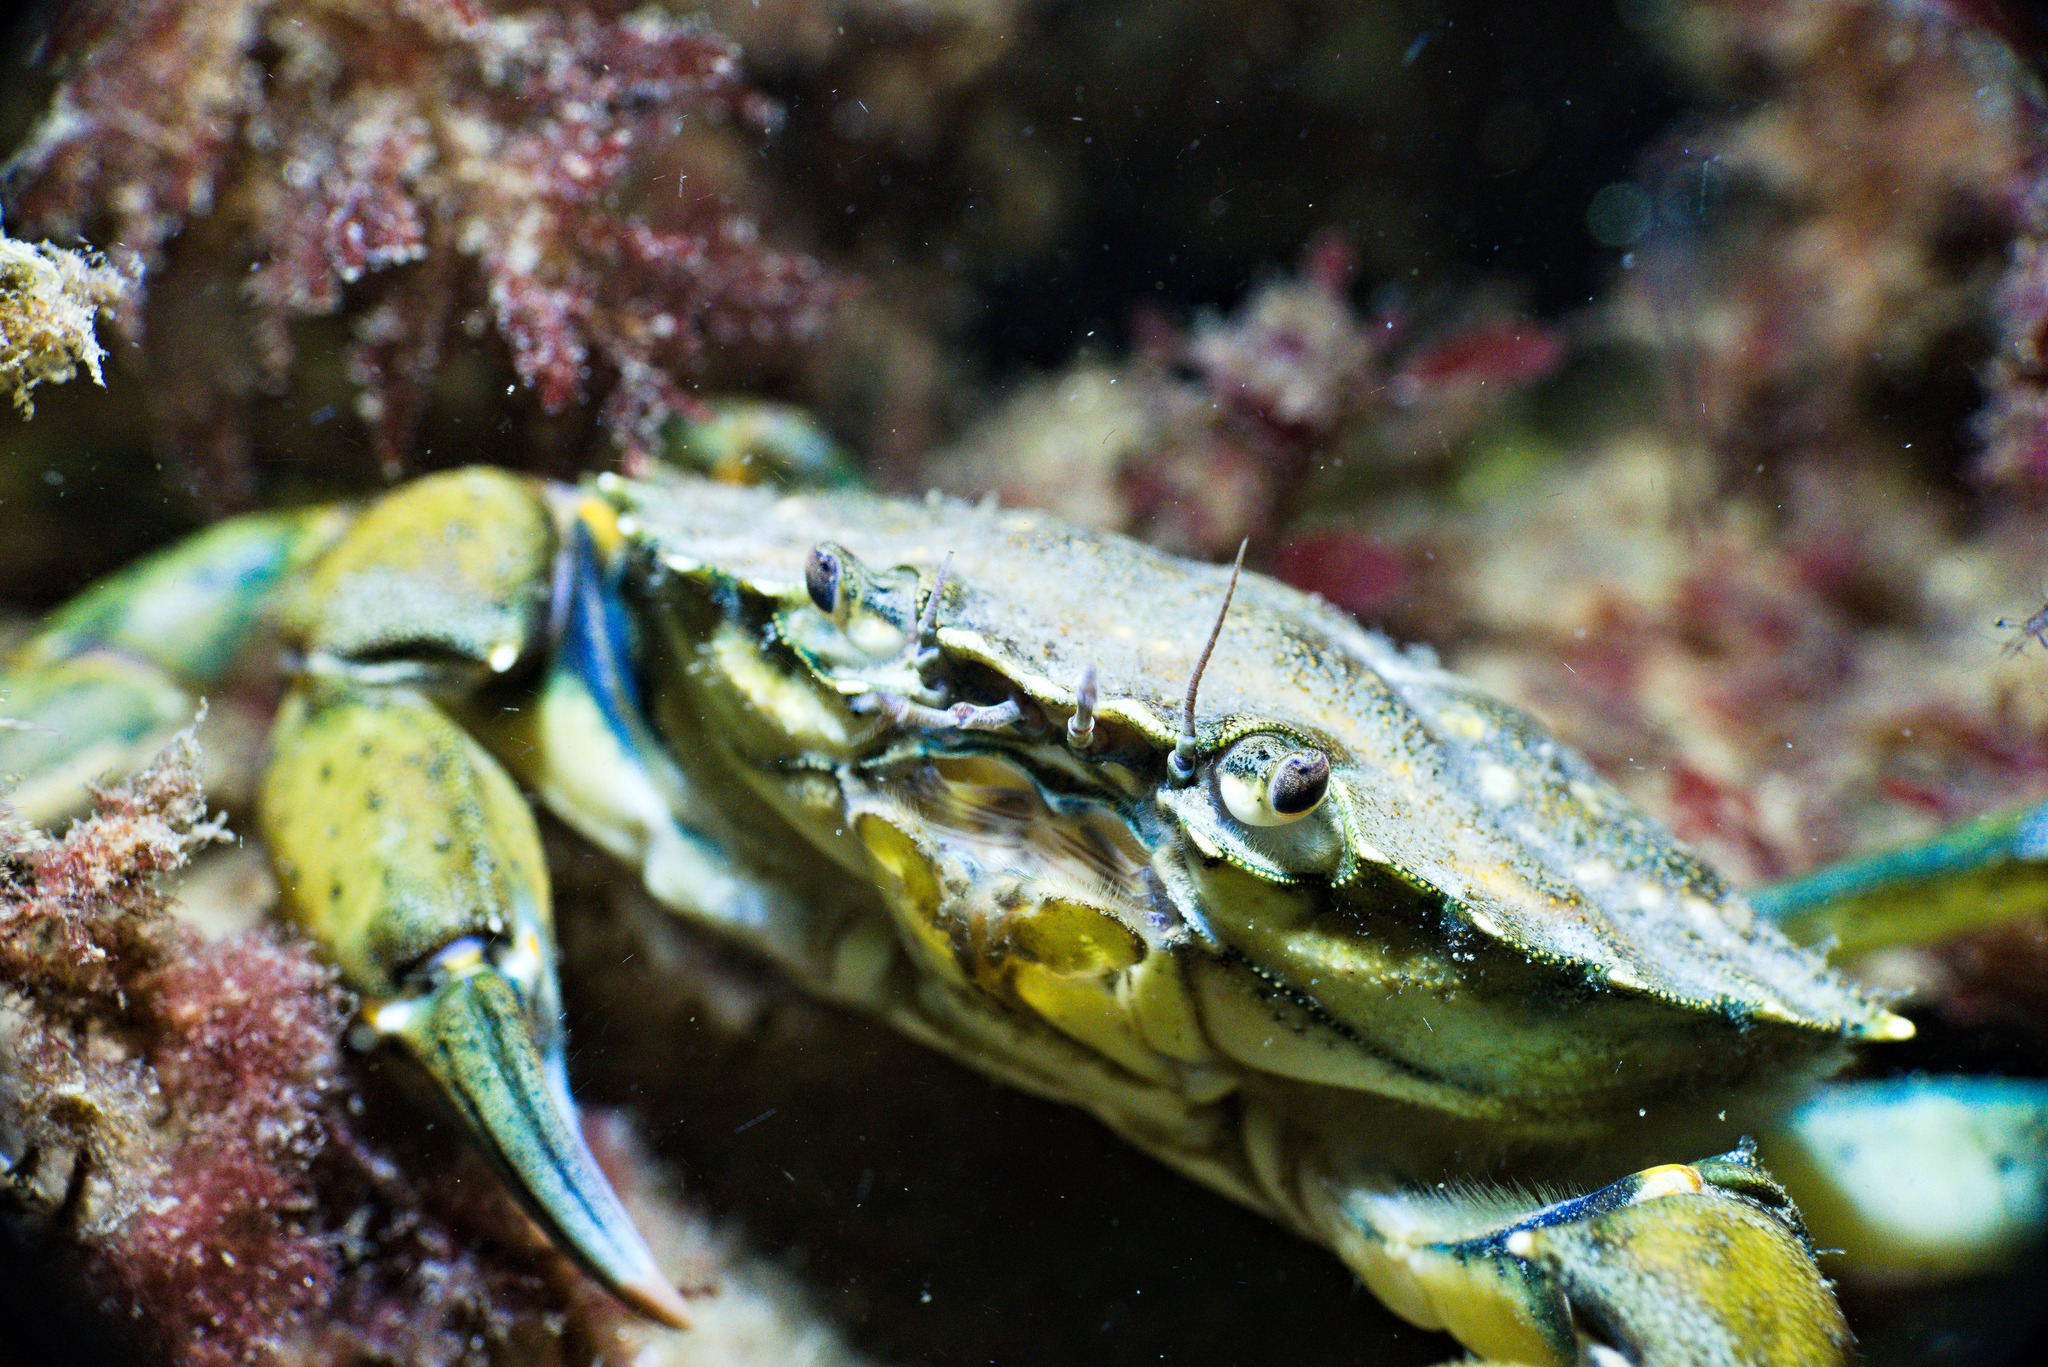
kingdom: Animalia
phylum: Arthropoda
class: Malacostraca
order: Decapoda
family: Carcinidae
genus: Carcinus
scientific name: Carcinus maenas
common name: European green crab
